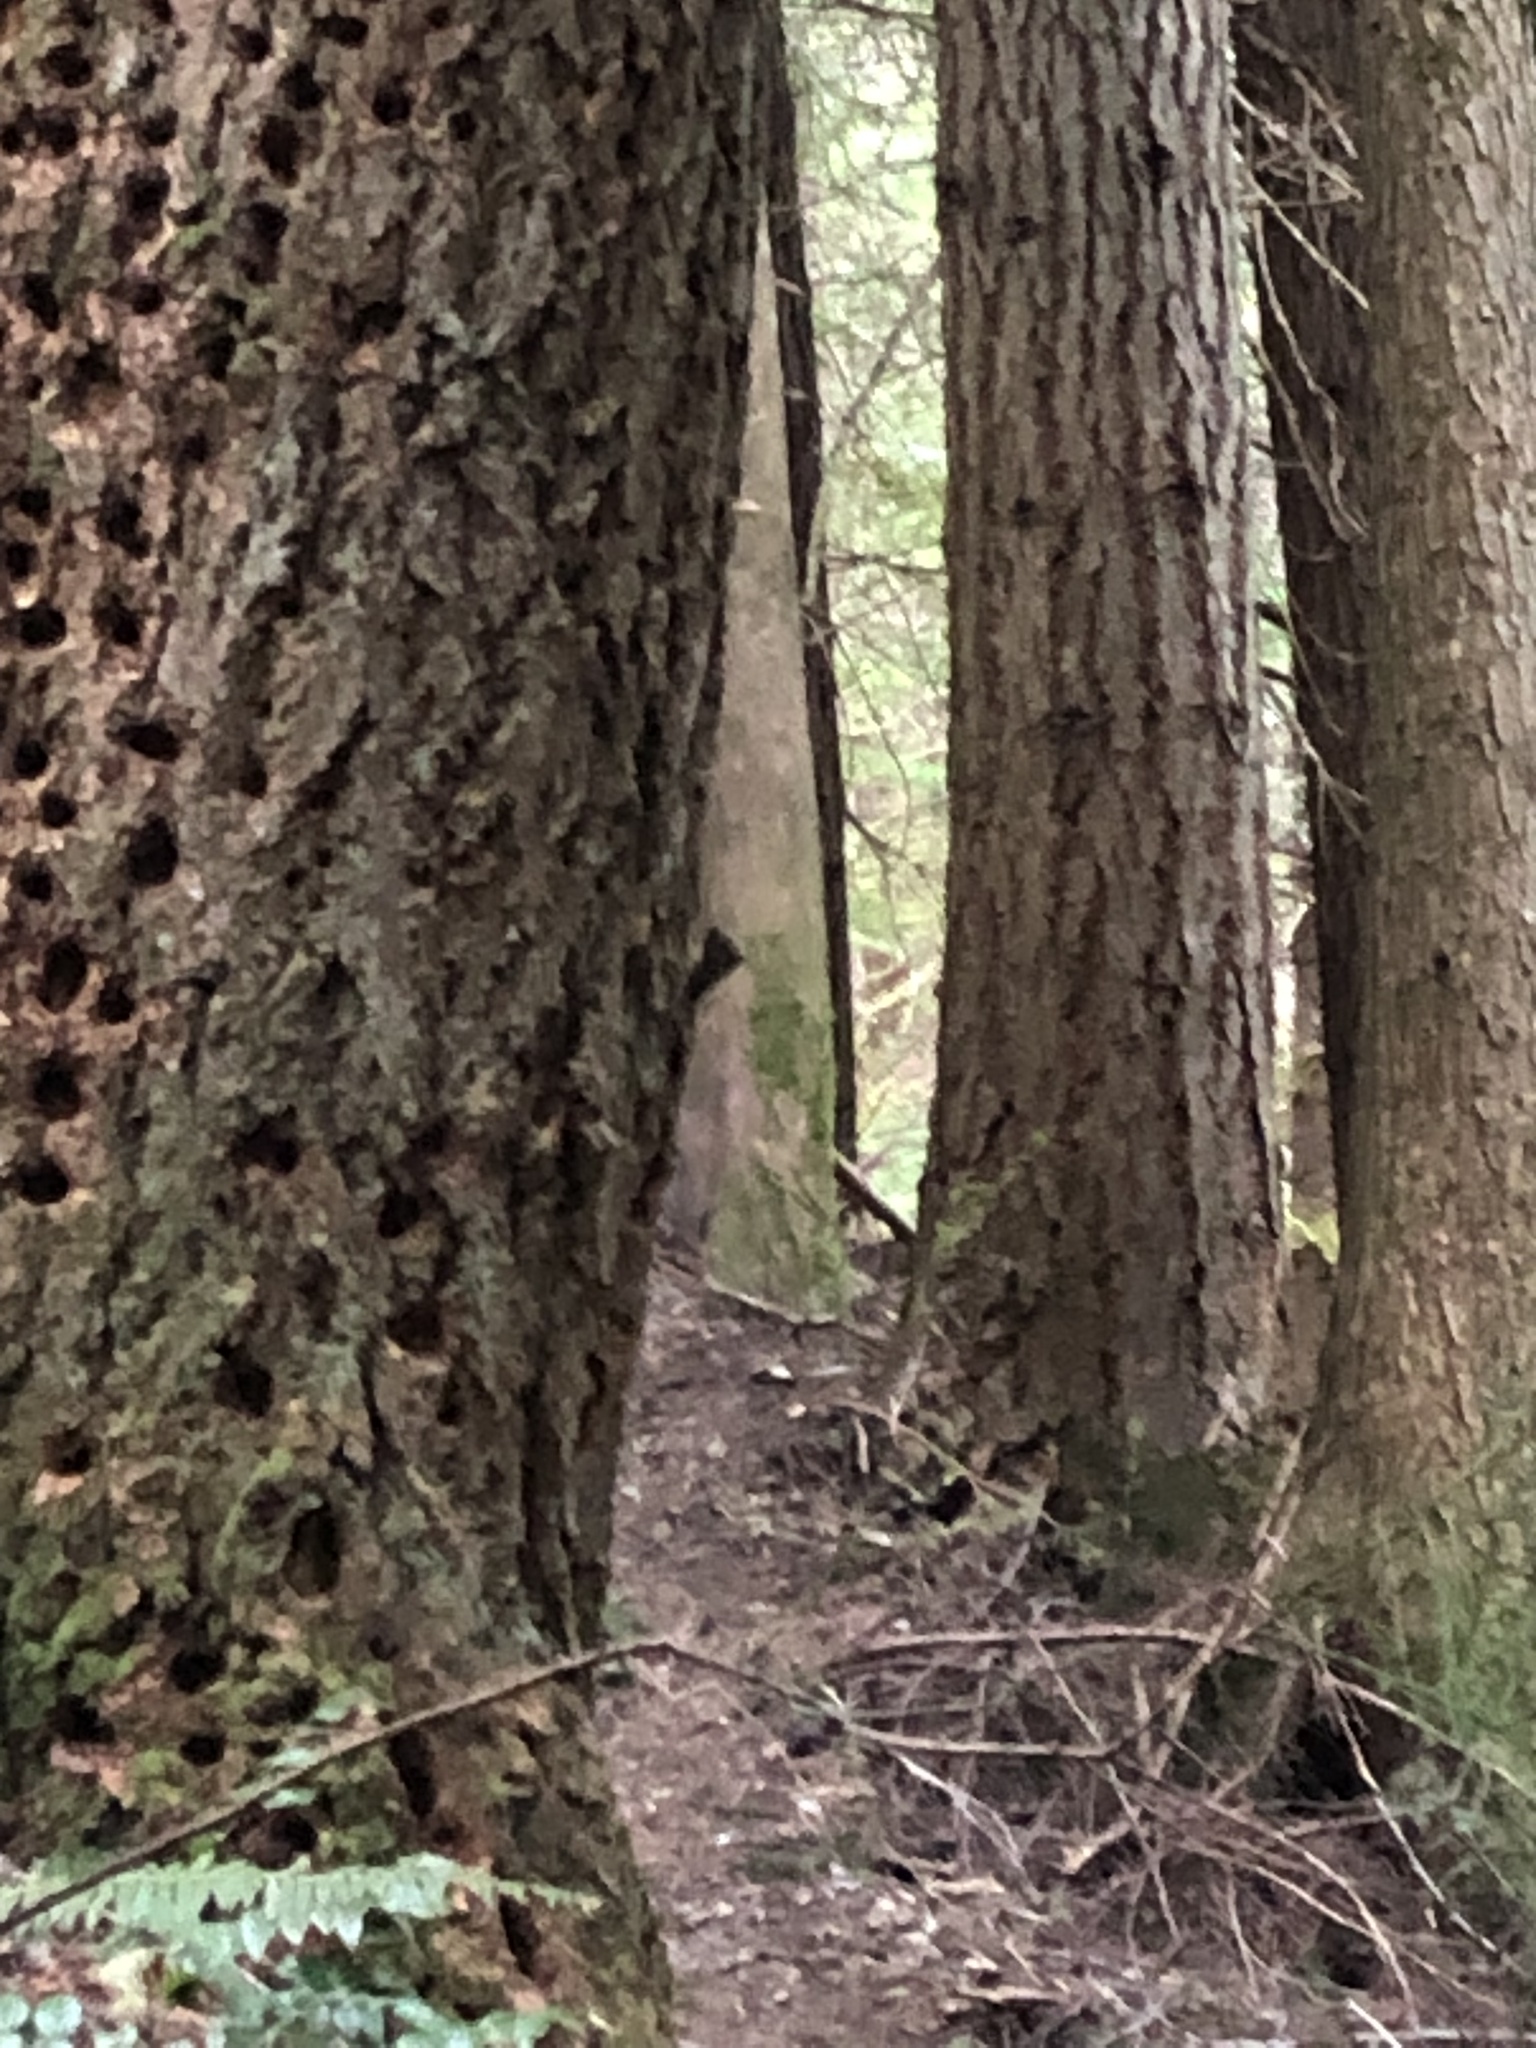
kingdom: Animalia
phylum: Chordata
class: Mammalia
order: Rodentia
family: Sciuridae
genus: Tamiasciurus
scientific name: Tamiasciurus douglasii
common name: Douglas's squirrel
